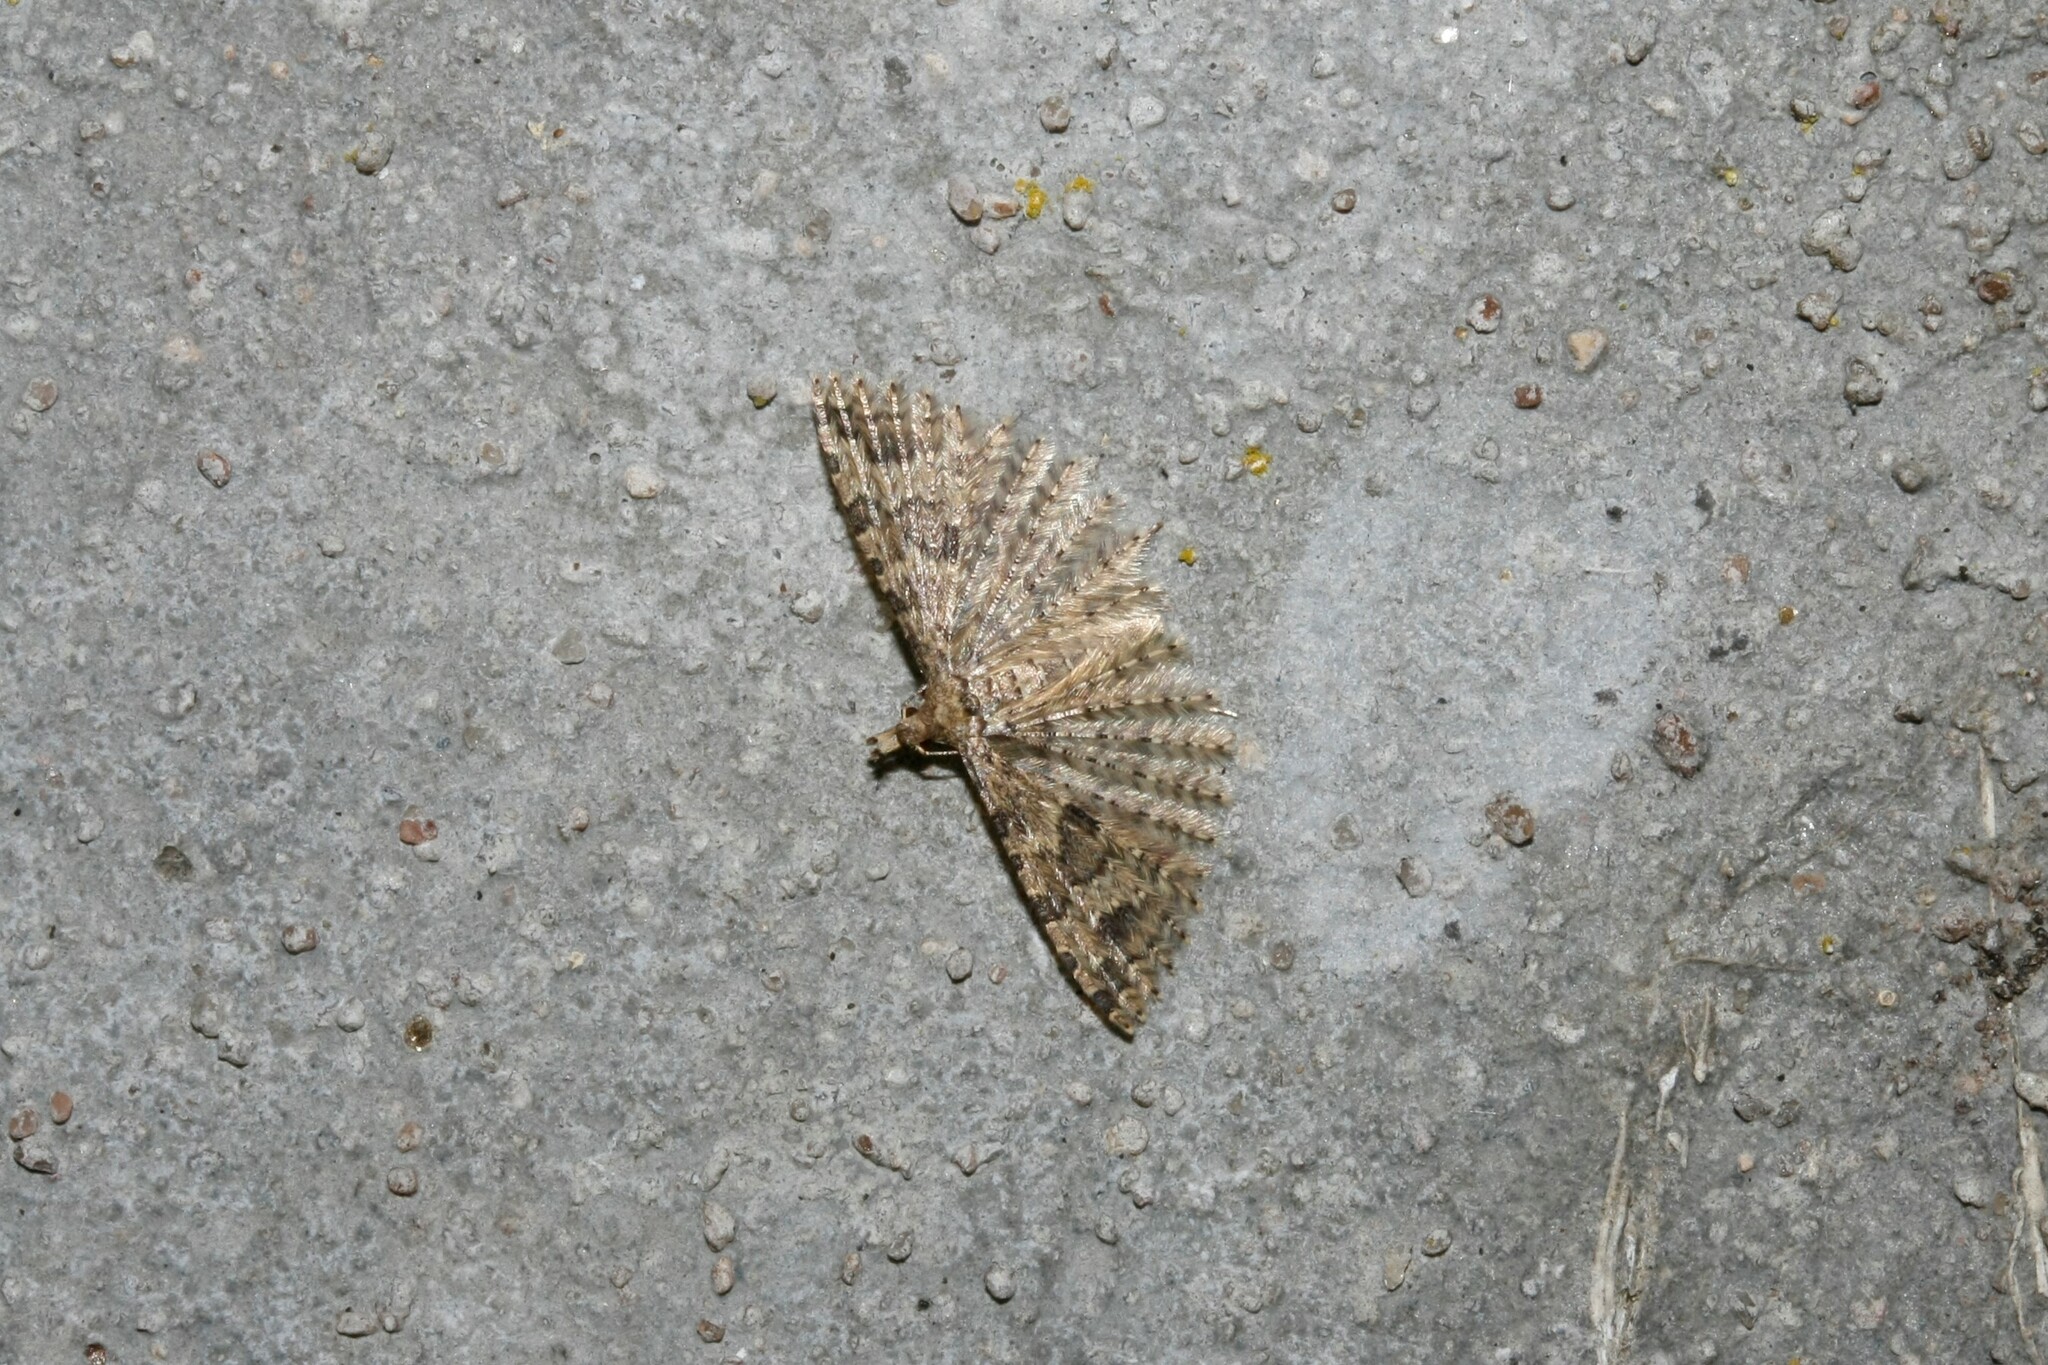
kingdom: Animalia
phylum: Arthropoda
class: Insecta
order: Lepidoptera
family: Alucitidae
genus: Alucita
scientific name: Alucita hexadactyla
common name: Twenty-plume moth
